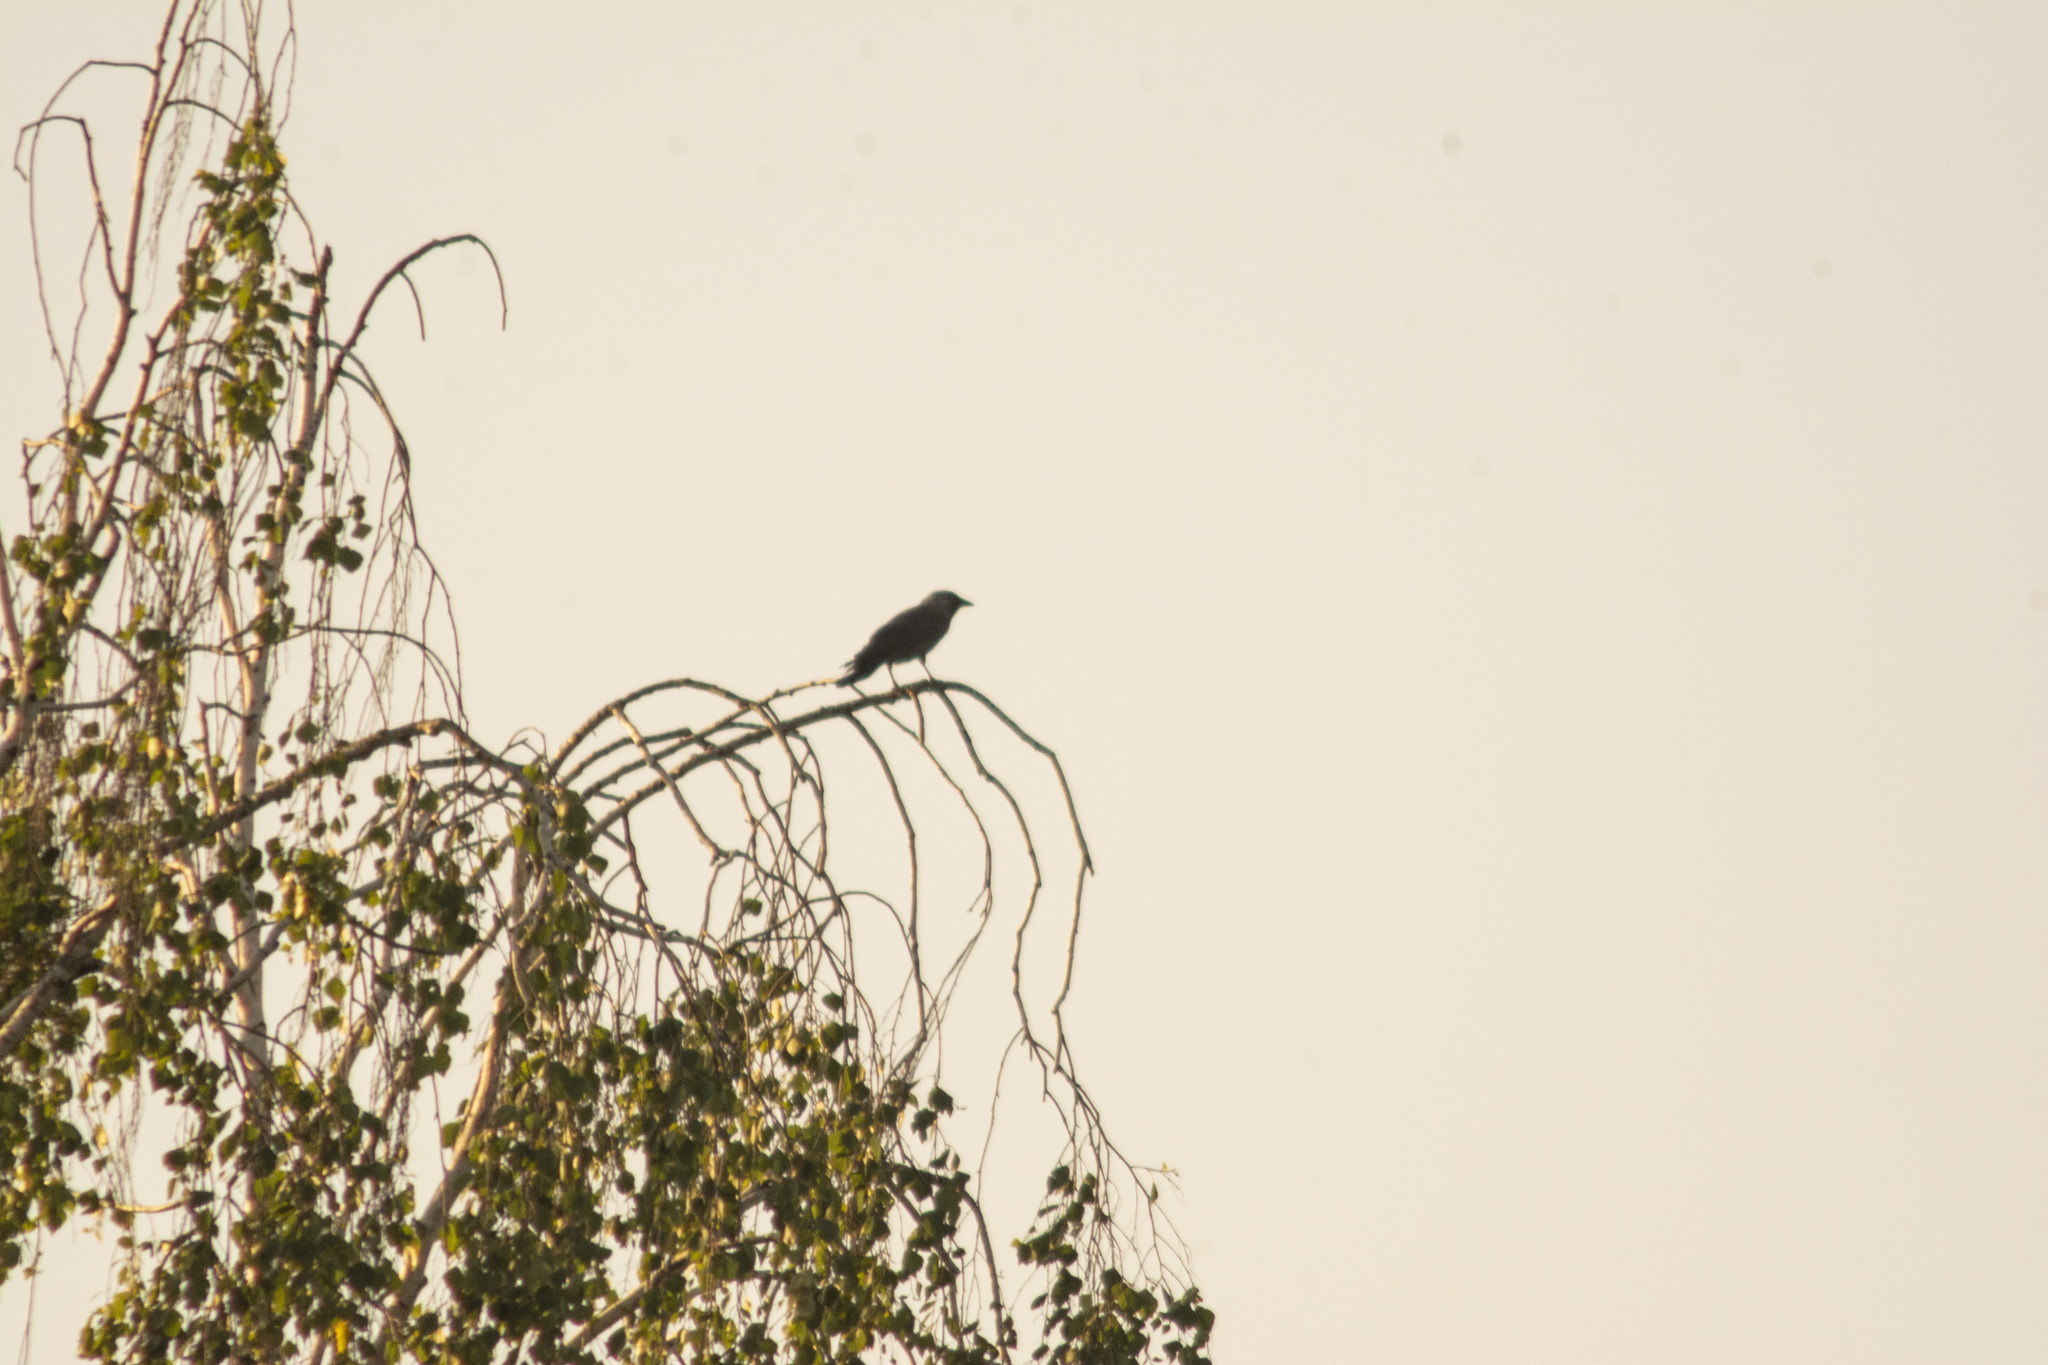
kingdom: Animalia
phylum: Chordata
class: Aves
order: Passeriformes
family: Corvidae
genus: Coloeus
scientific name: Coloeus monedula
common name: Western jackdaw
